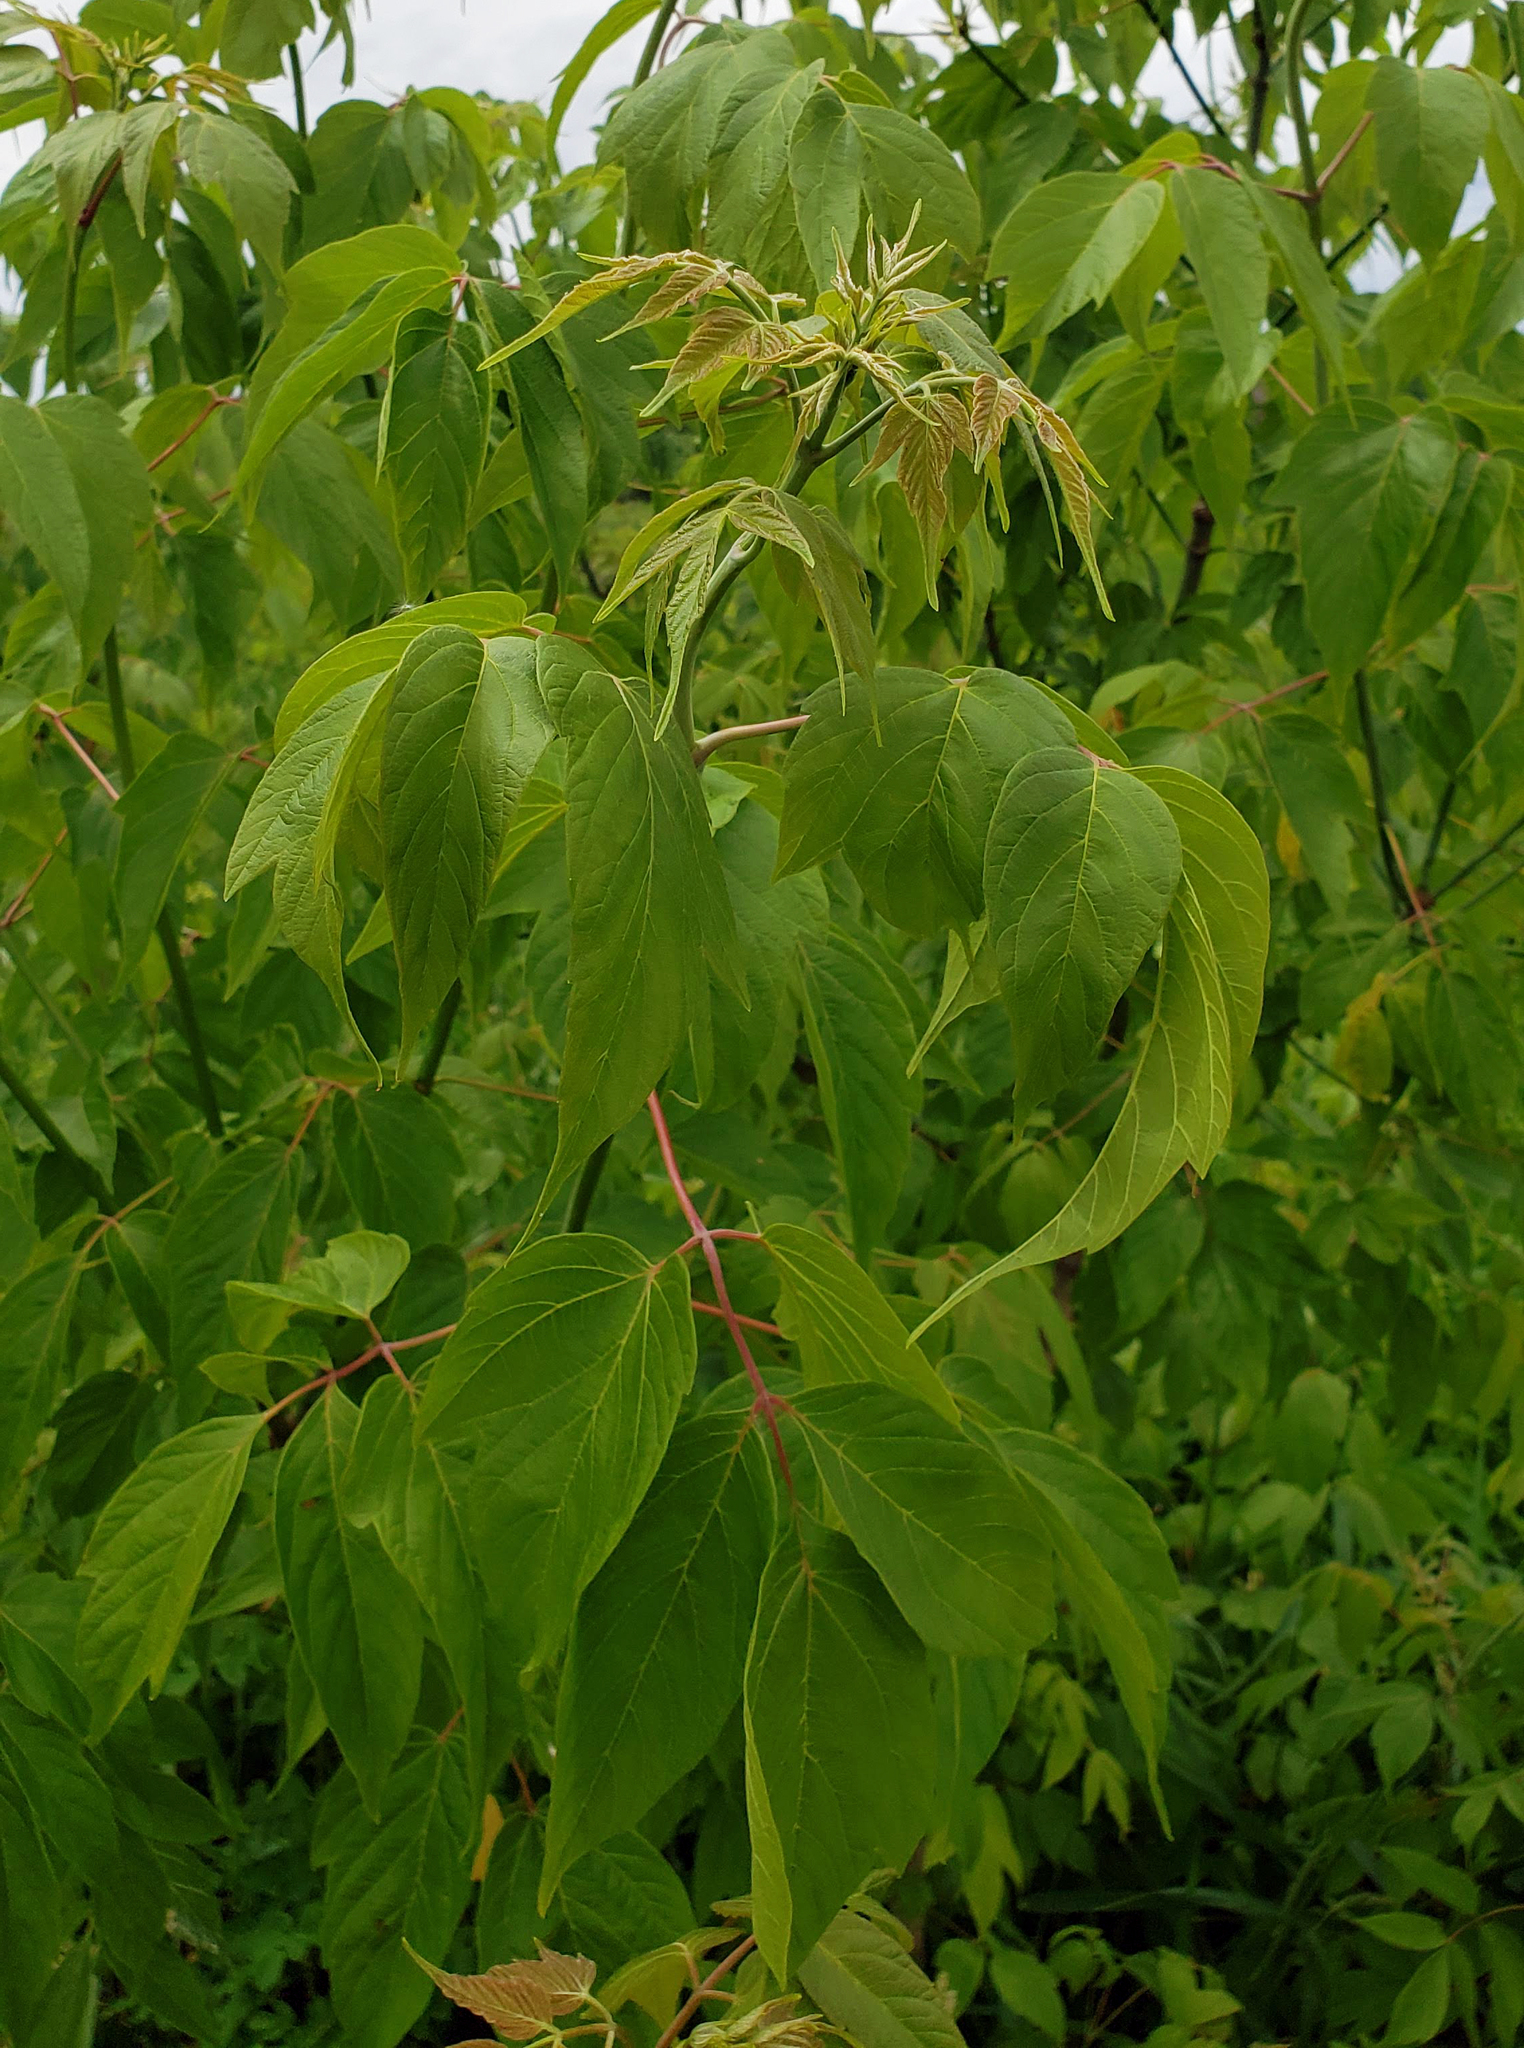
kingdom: Plantae
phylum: Tracheophyta
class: Magnoliopsida
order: Sapindales
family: Sapindaceae
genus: Acer
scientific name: Acer negundo
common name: Ashleaf maple
